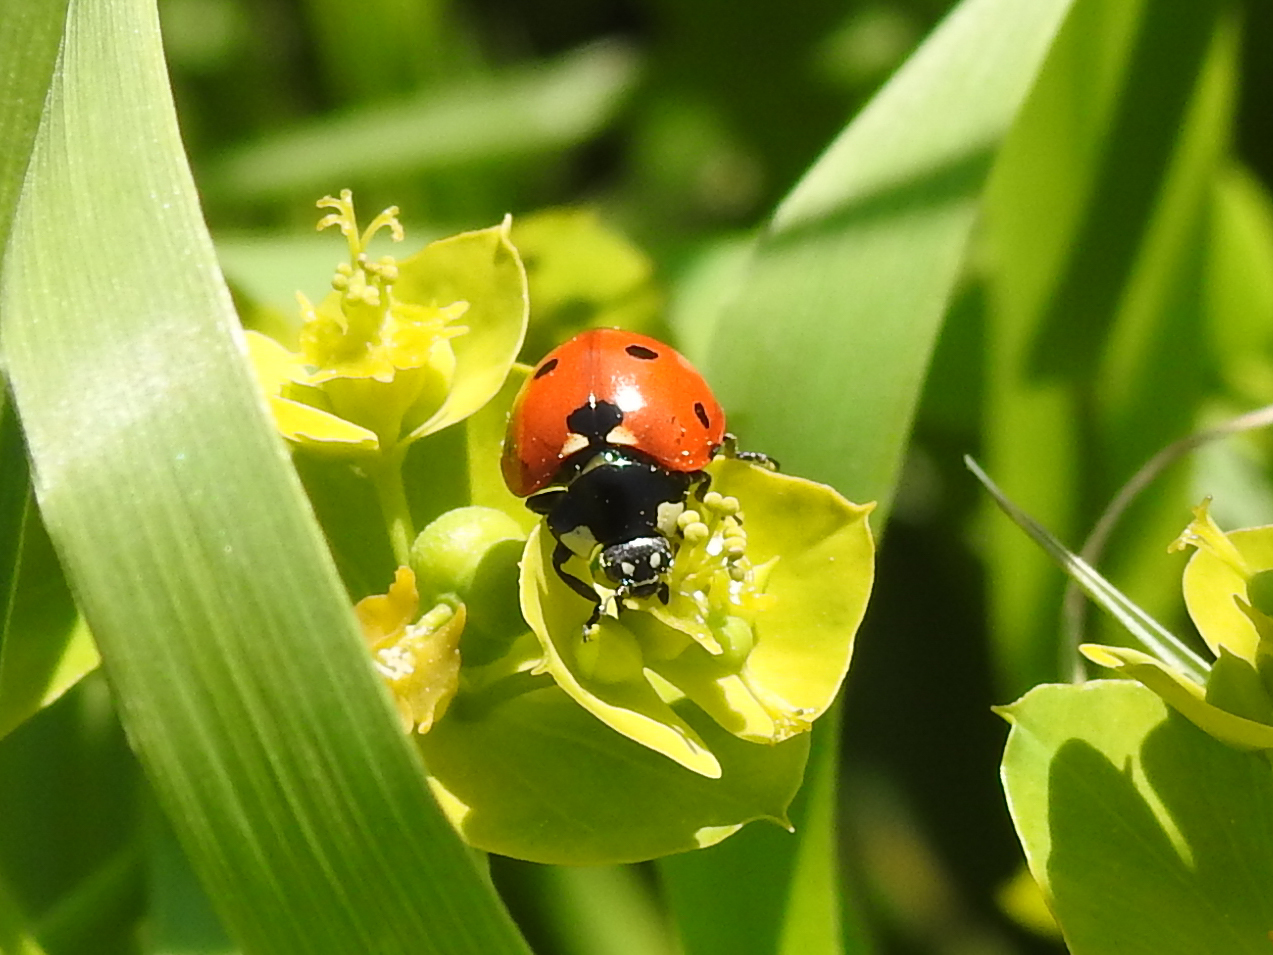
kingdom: Animalia
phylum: Arthropoda
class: Insecta
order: Coleoptera
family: Coccinellidae
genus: Coccinella
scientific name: Coccinella septempunctata
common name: Sevenspotted lady beetle
